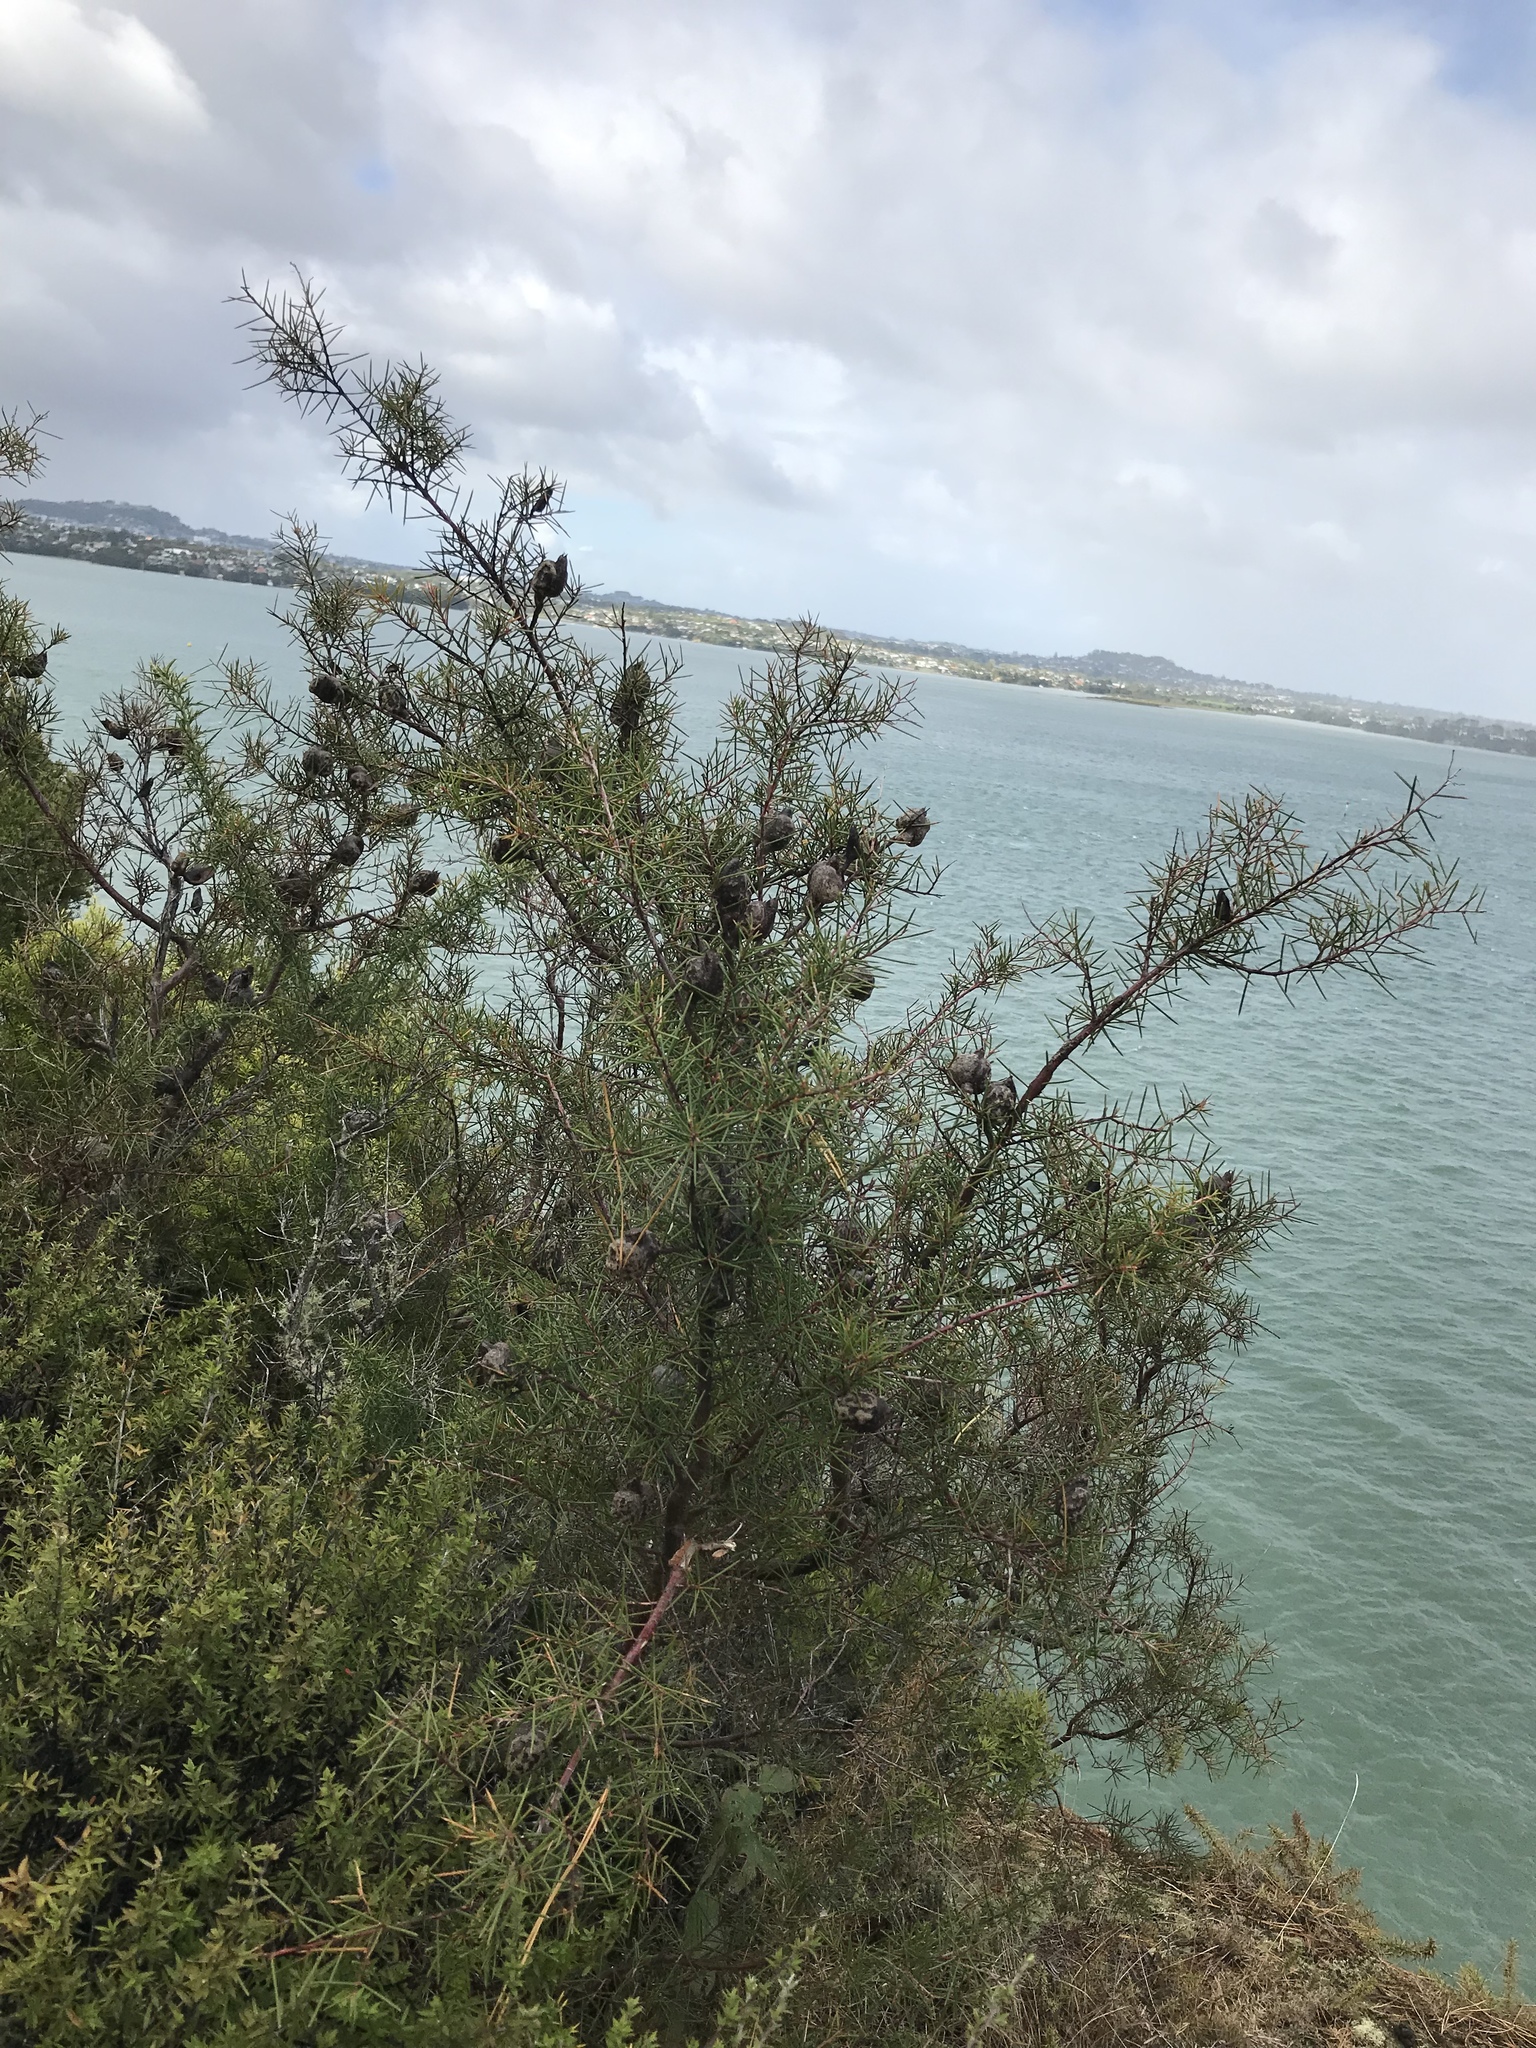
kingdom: Plantae
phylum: Tracheophyta
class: Magnoliopsida
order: Proteales
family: Proteaceae
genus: Hakea
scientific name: Hakea sericea
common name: Needle bush
